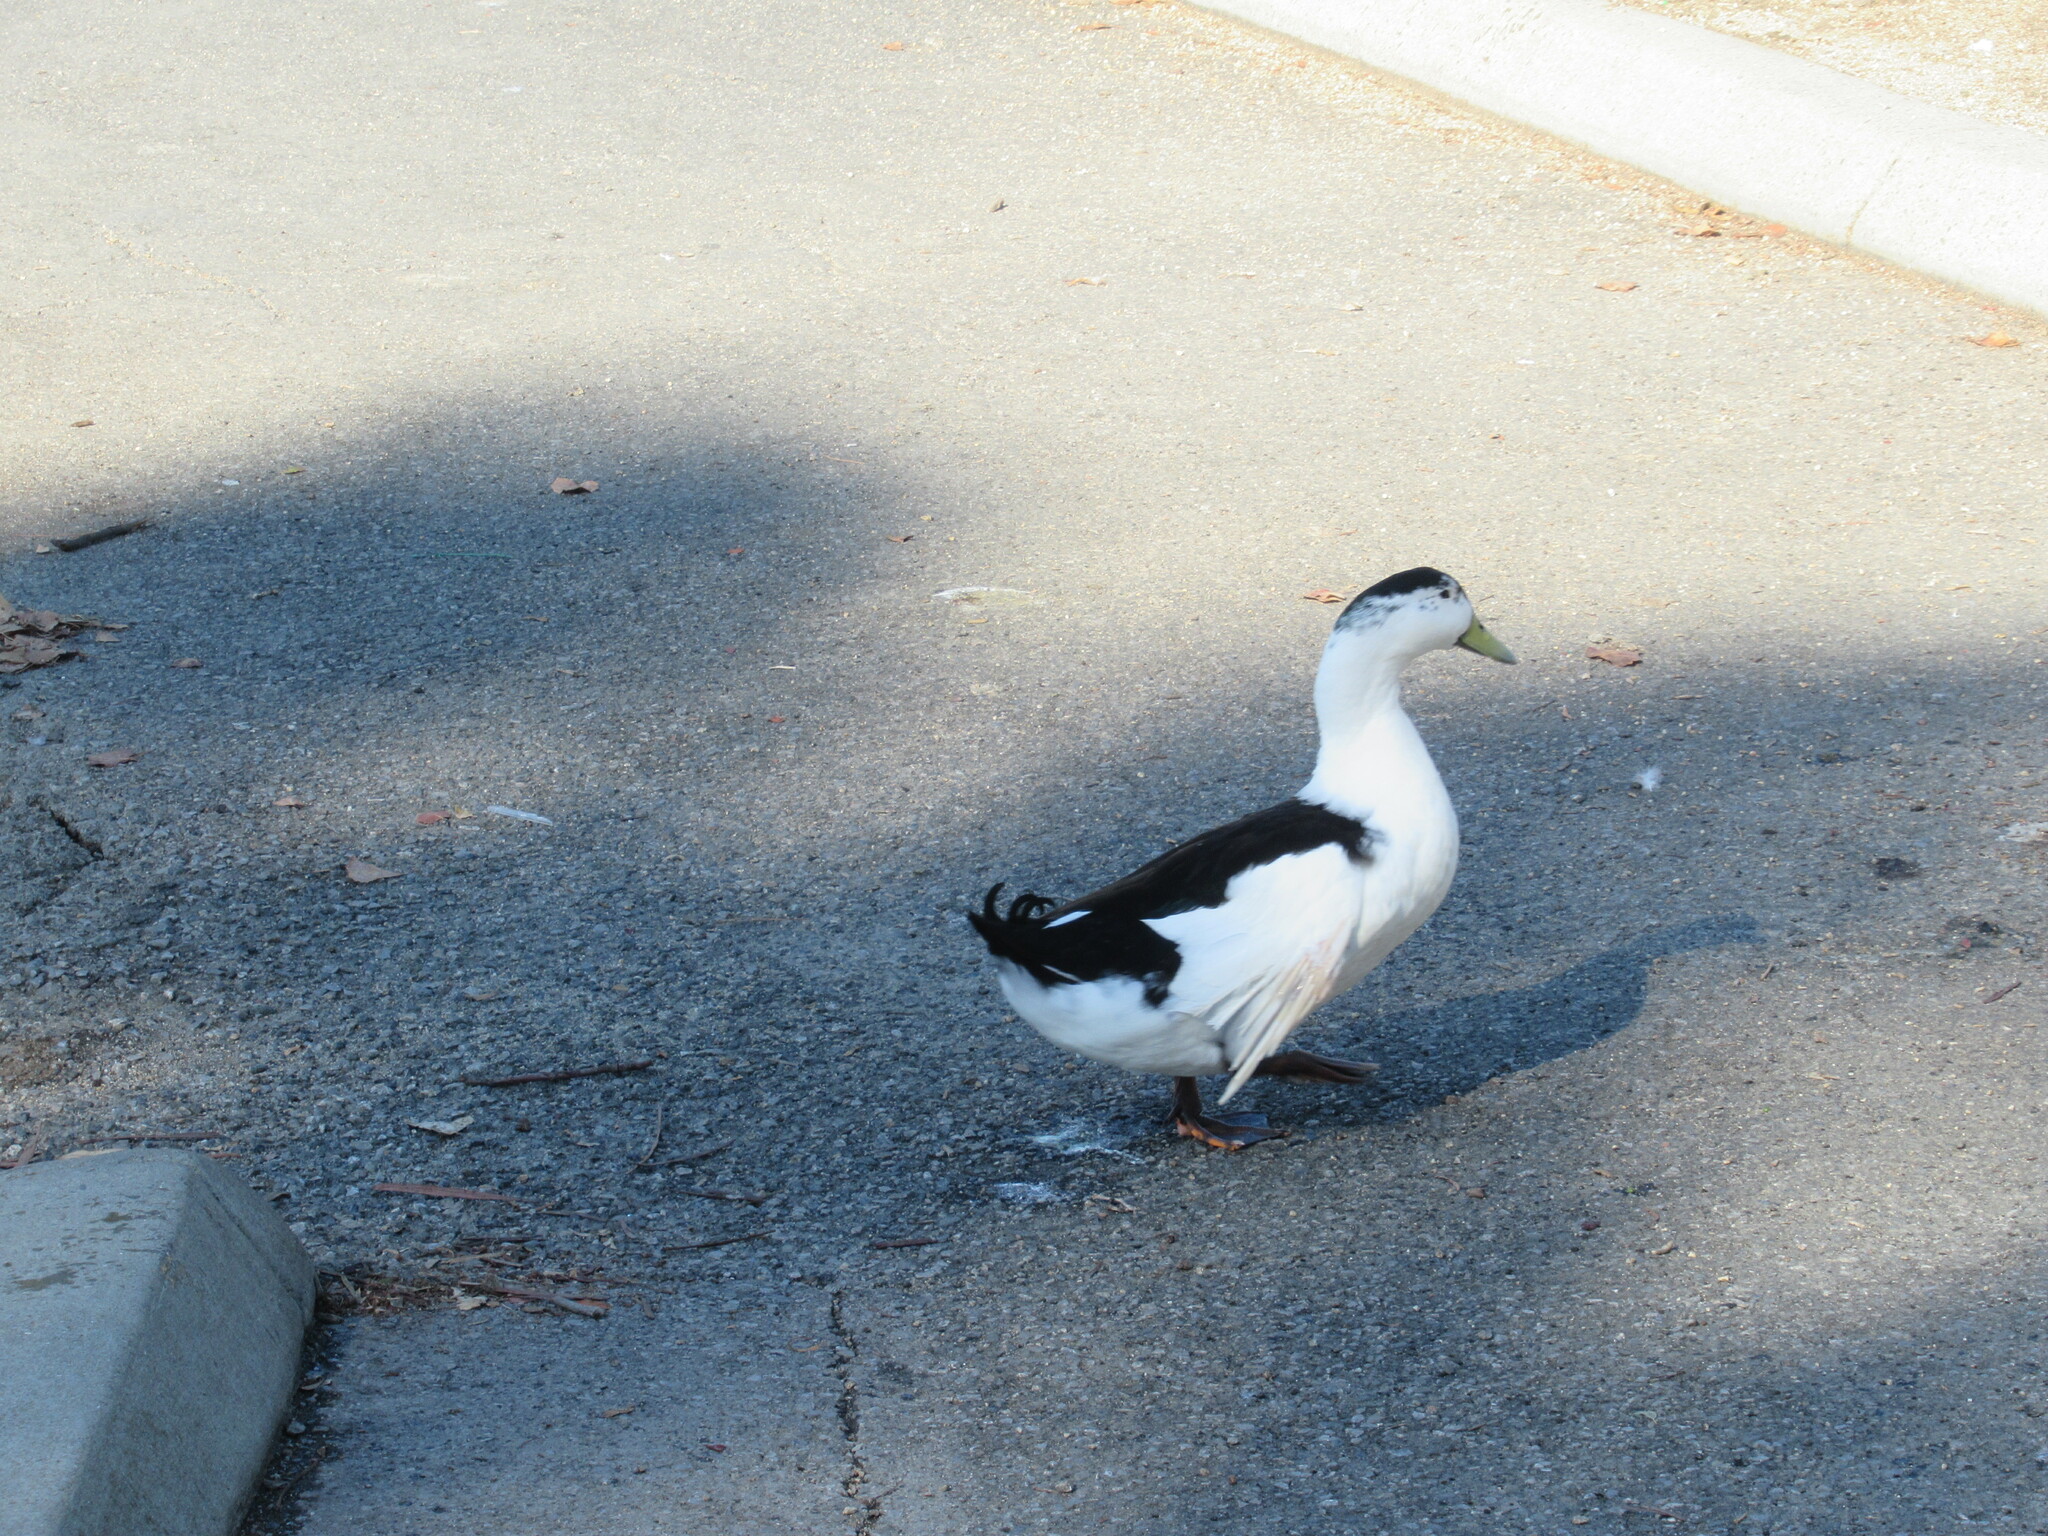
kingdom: Animalia
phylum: Chordata
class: Aves
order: Anseriformes
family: Anatidae
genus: Anas
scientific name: Anas platyrhynchos
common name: Mallard
